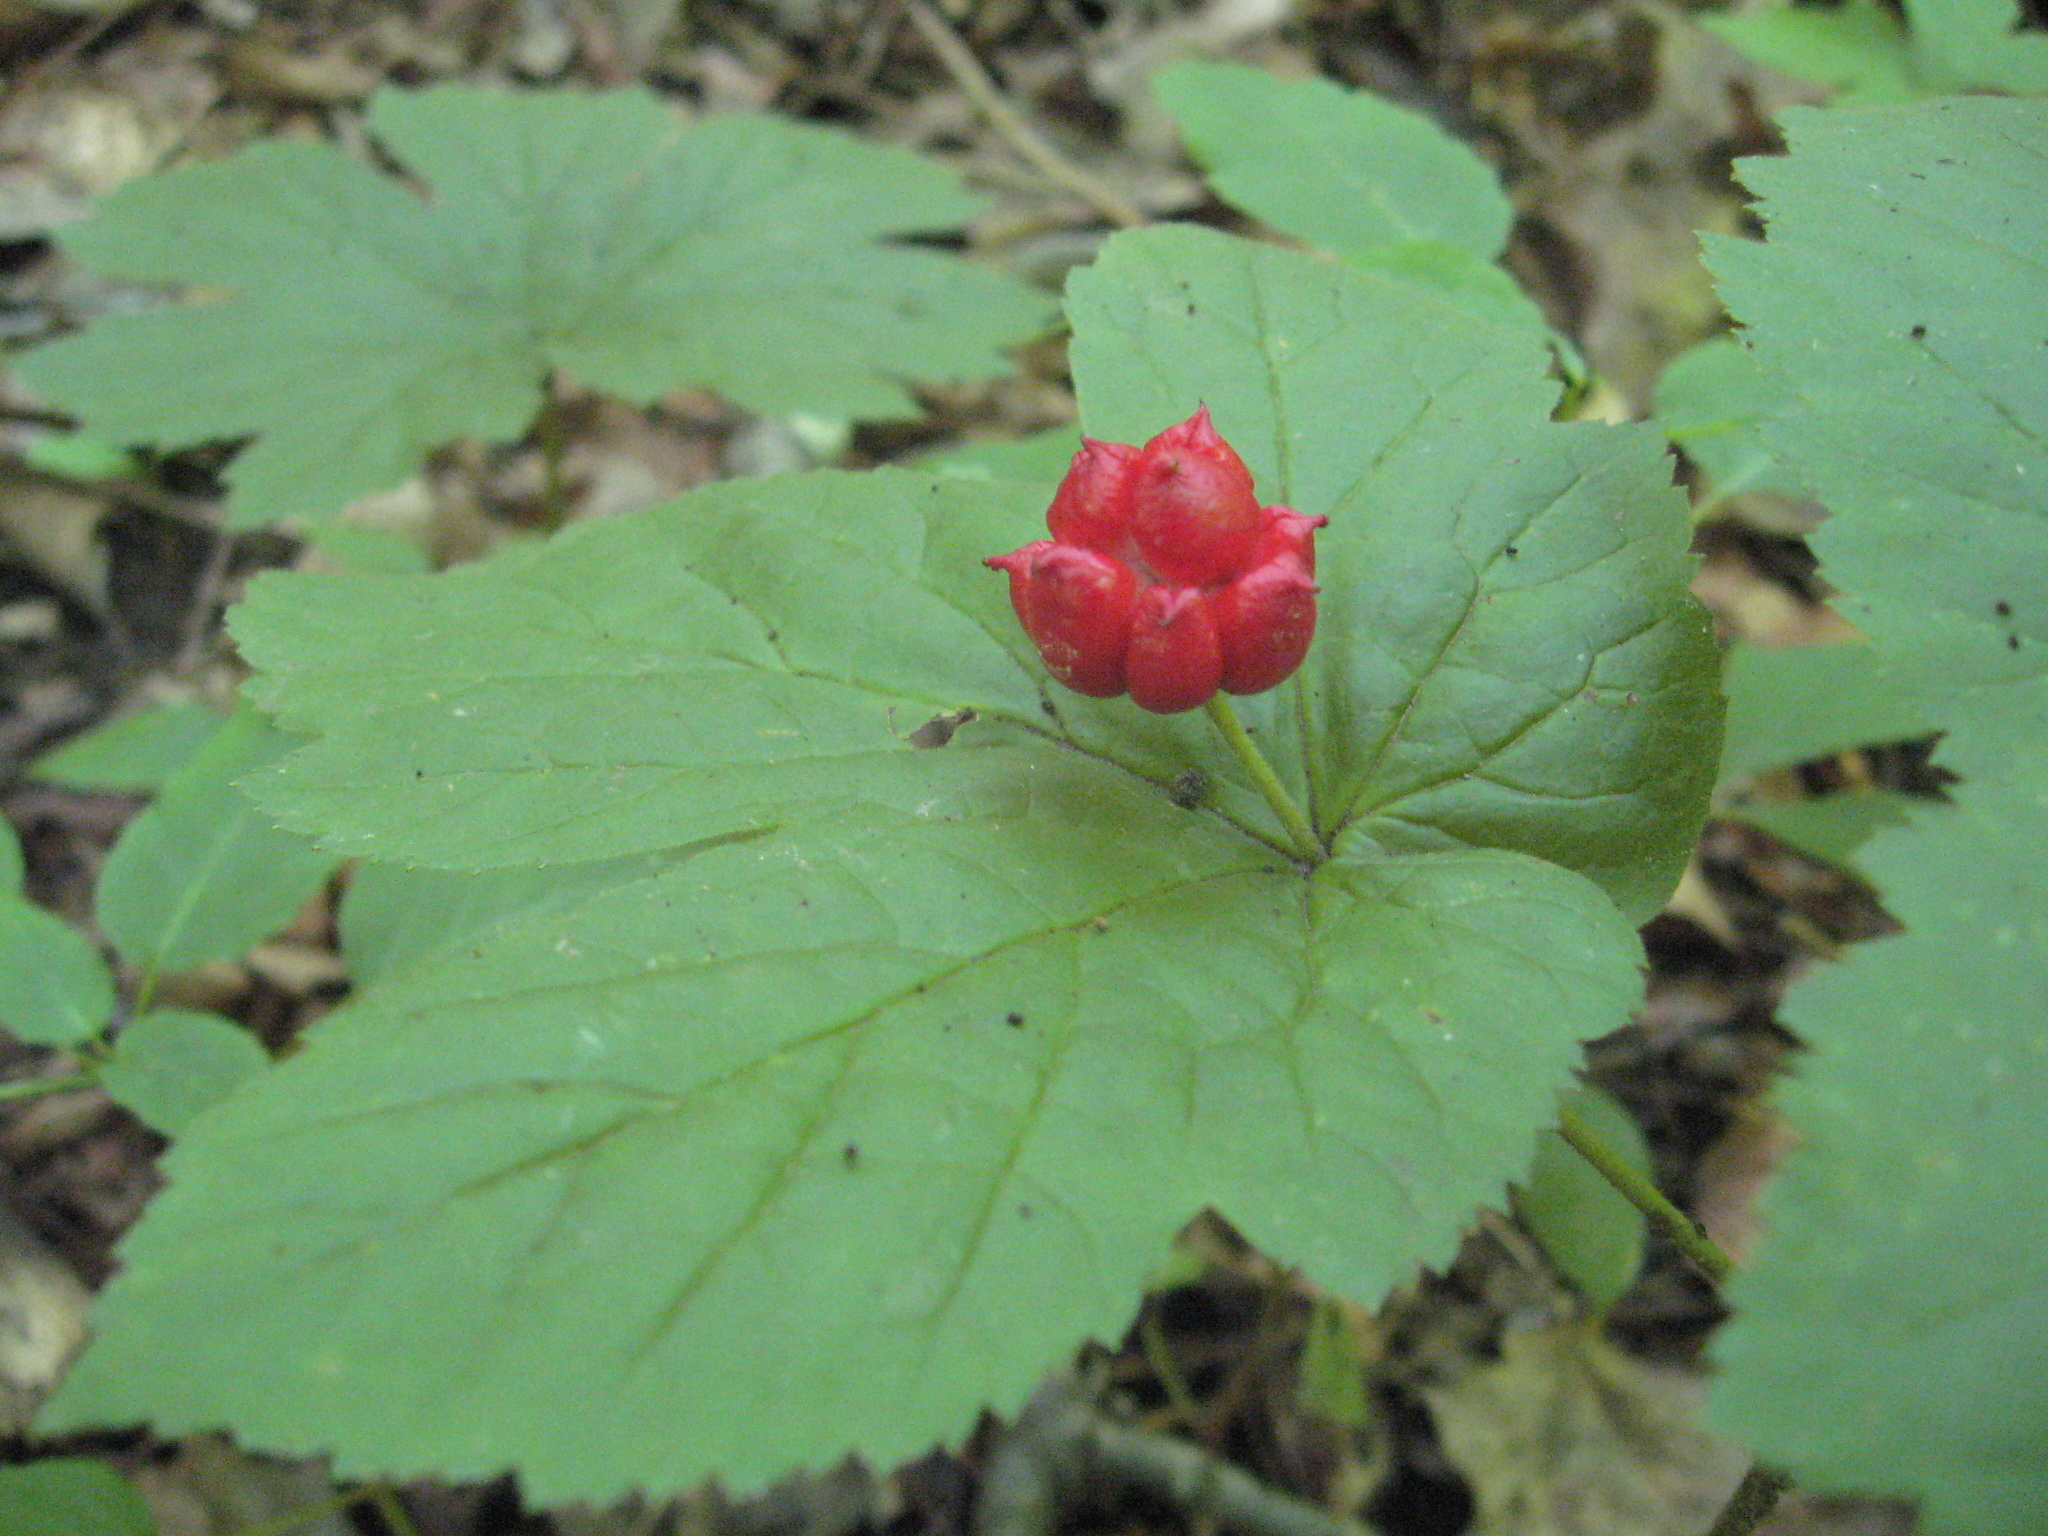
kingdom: Plantae
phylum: Tracheophyta
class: Magnoliopsida
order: Ranunculales
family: Ranunculaceae
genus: Hydrastis
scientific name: Hydrastis canadensis
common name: Goldenseal
